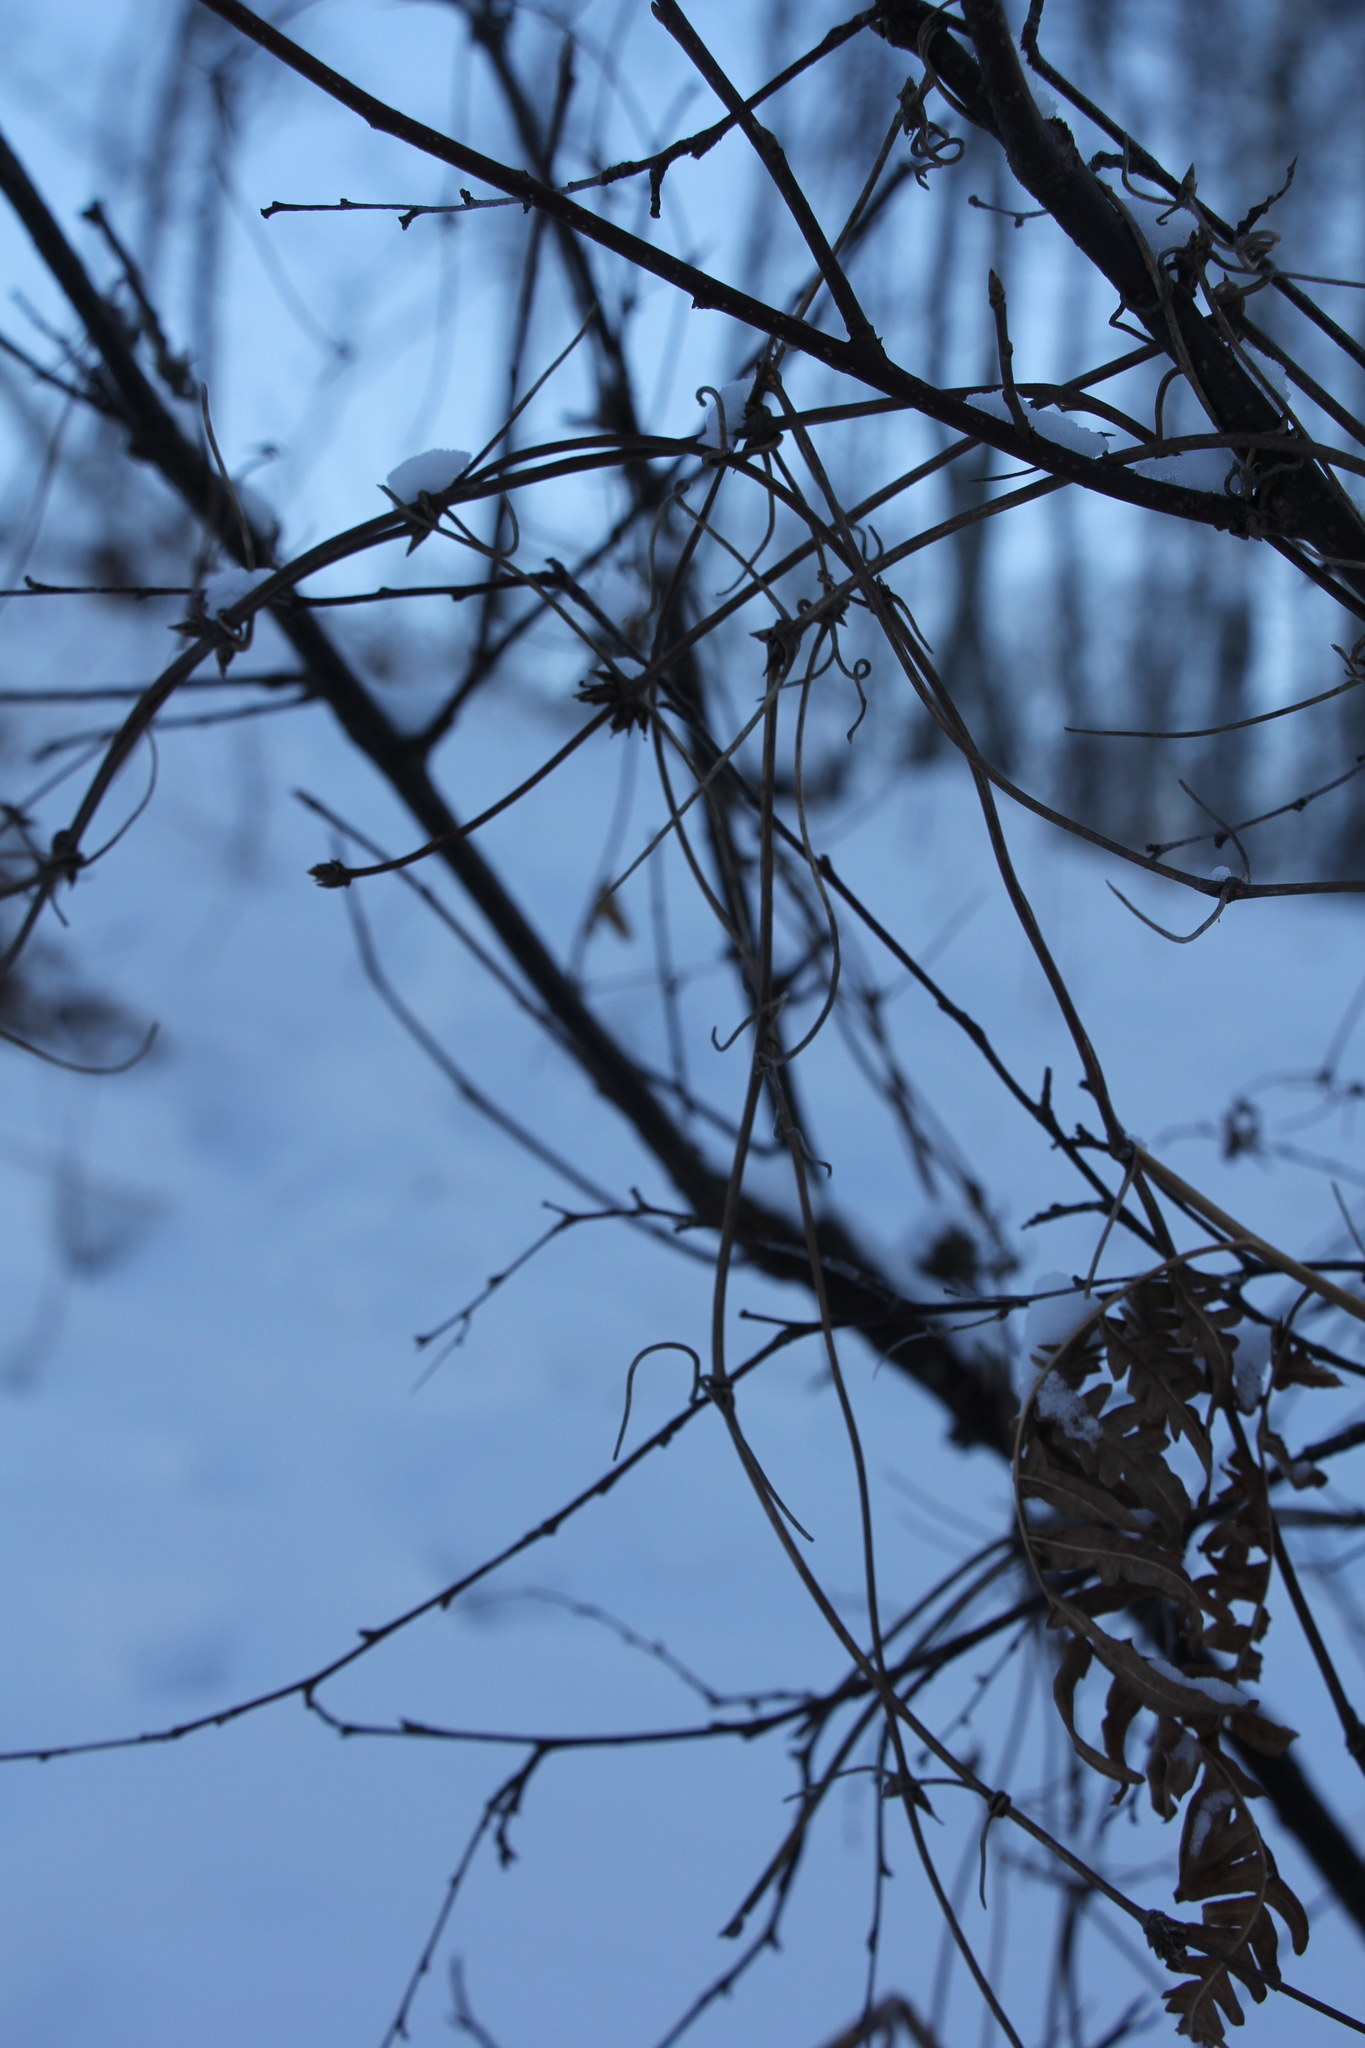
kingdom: Plantae
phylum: Tracheophyta
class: Magnoliopsida
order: Ranunculales
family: Ranunculaceae
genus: Clematis
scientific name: Clematis sibirica
